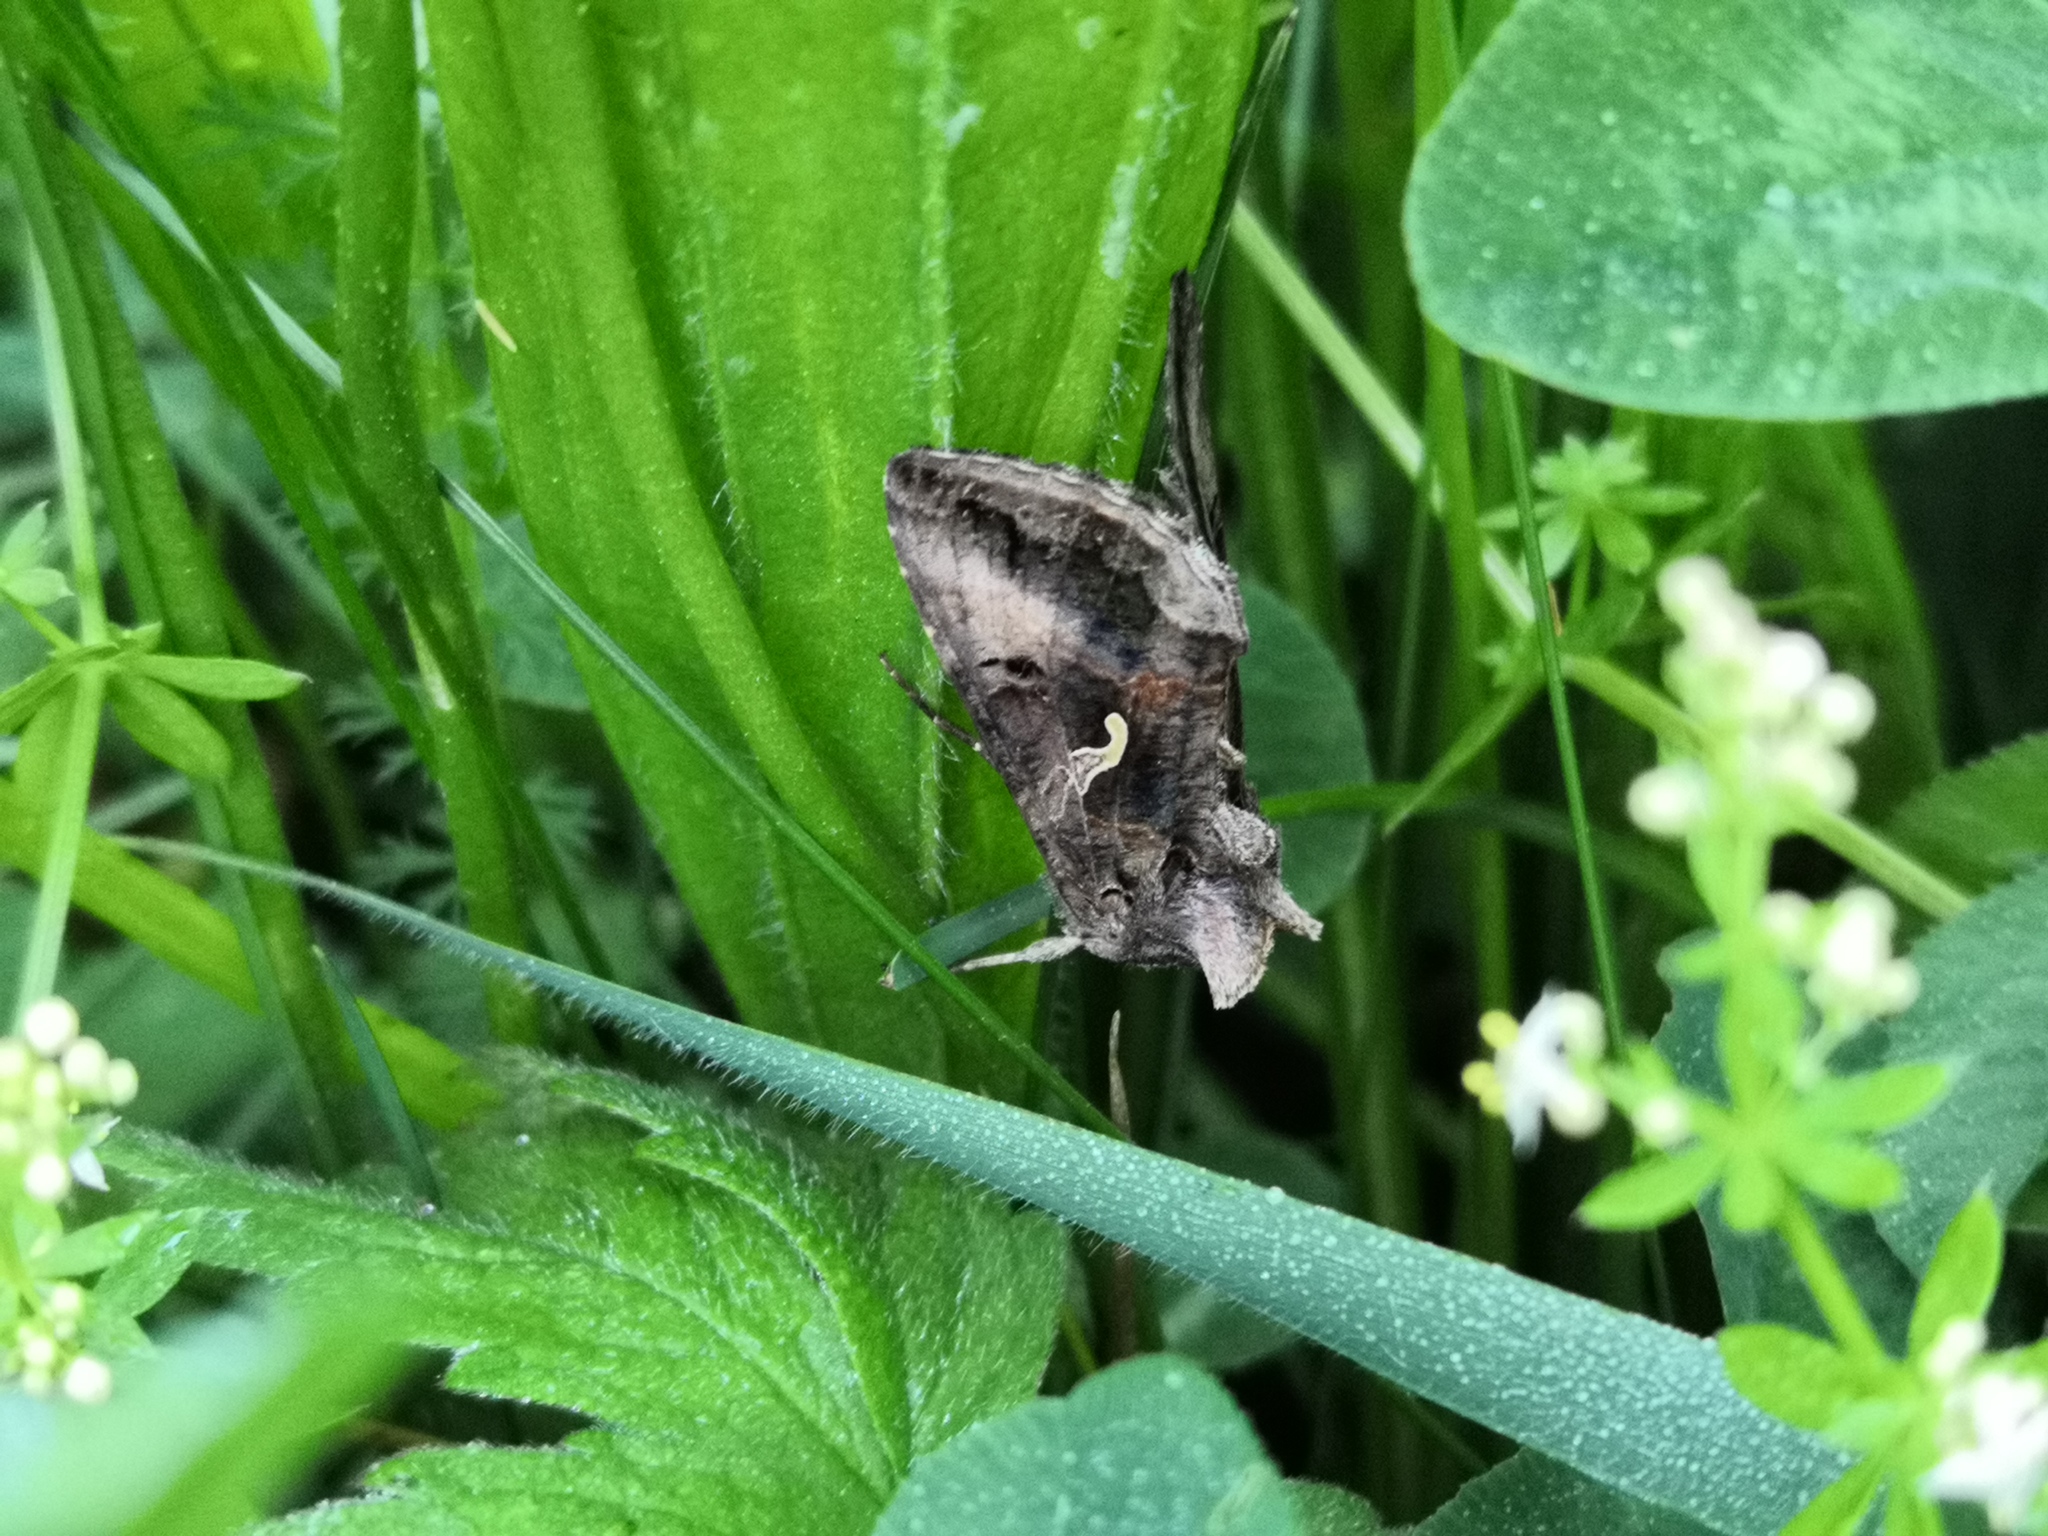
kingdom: Animalia
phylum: Arthropoda
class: Insecta
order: Lepidoptera
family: Noctuidae
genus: Autographa
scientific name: Autographa gamma
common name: Silver y
